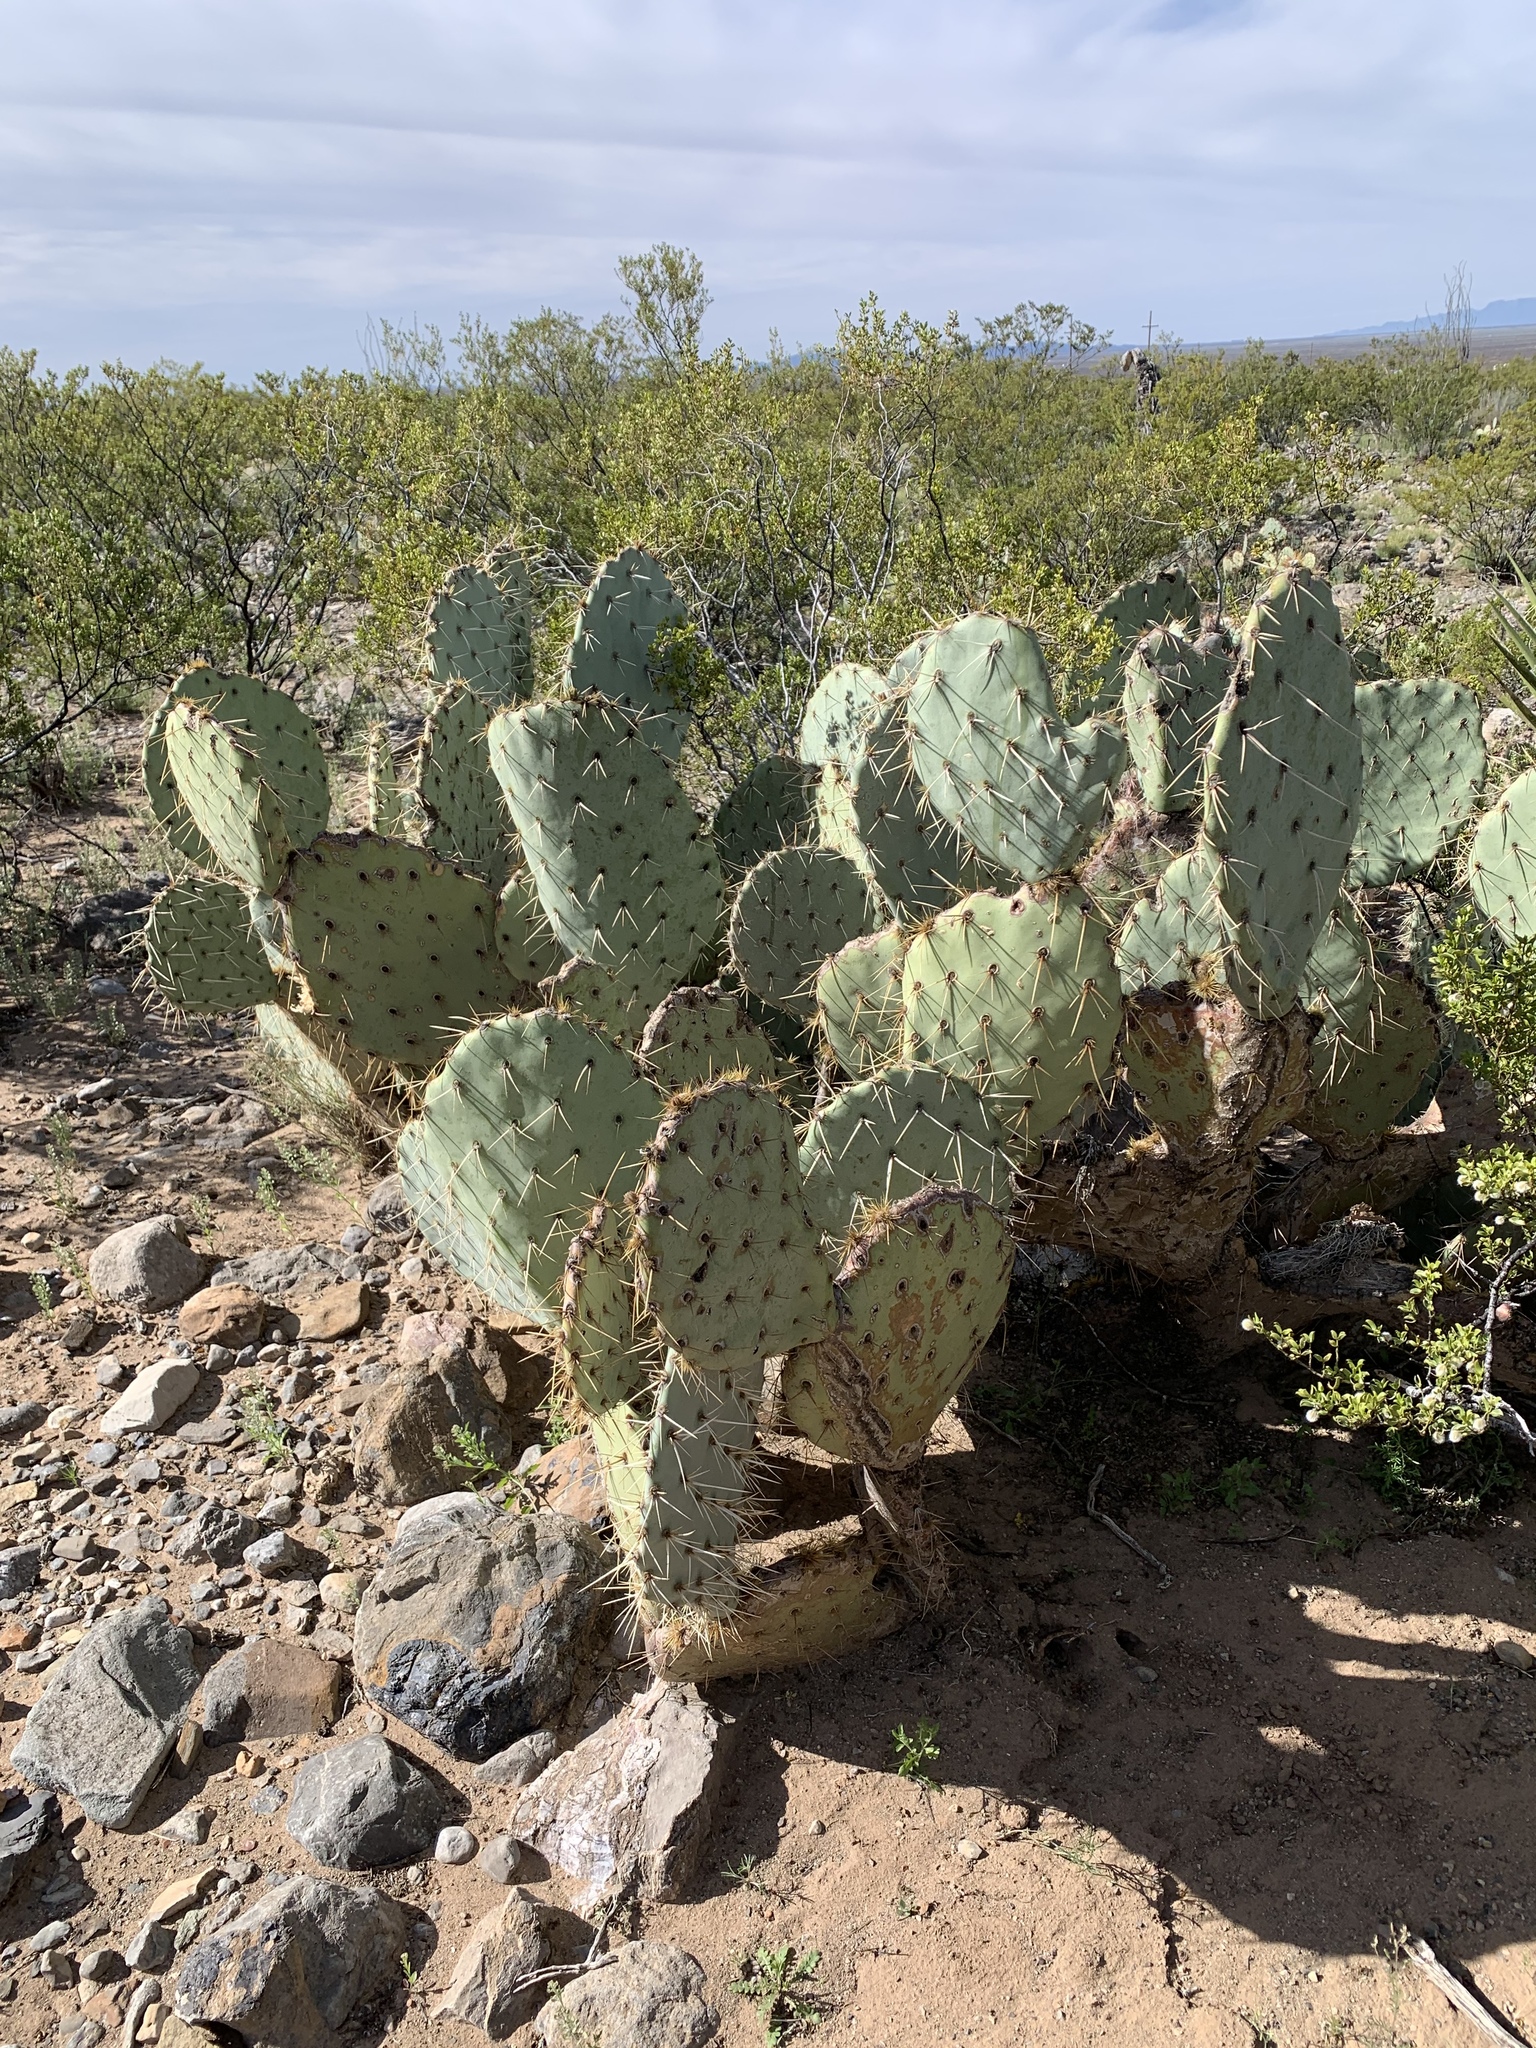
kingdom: Plantae
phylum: Tracheophyta
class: Magnoliopsida
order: Caryophyllales
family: Cactaceae
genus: Opuntia
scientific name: Opuntia engelmannii
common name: Cactus-apple
